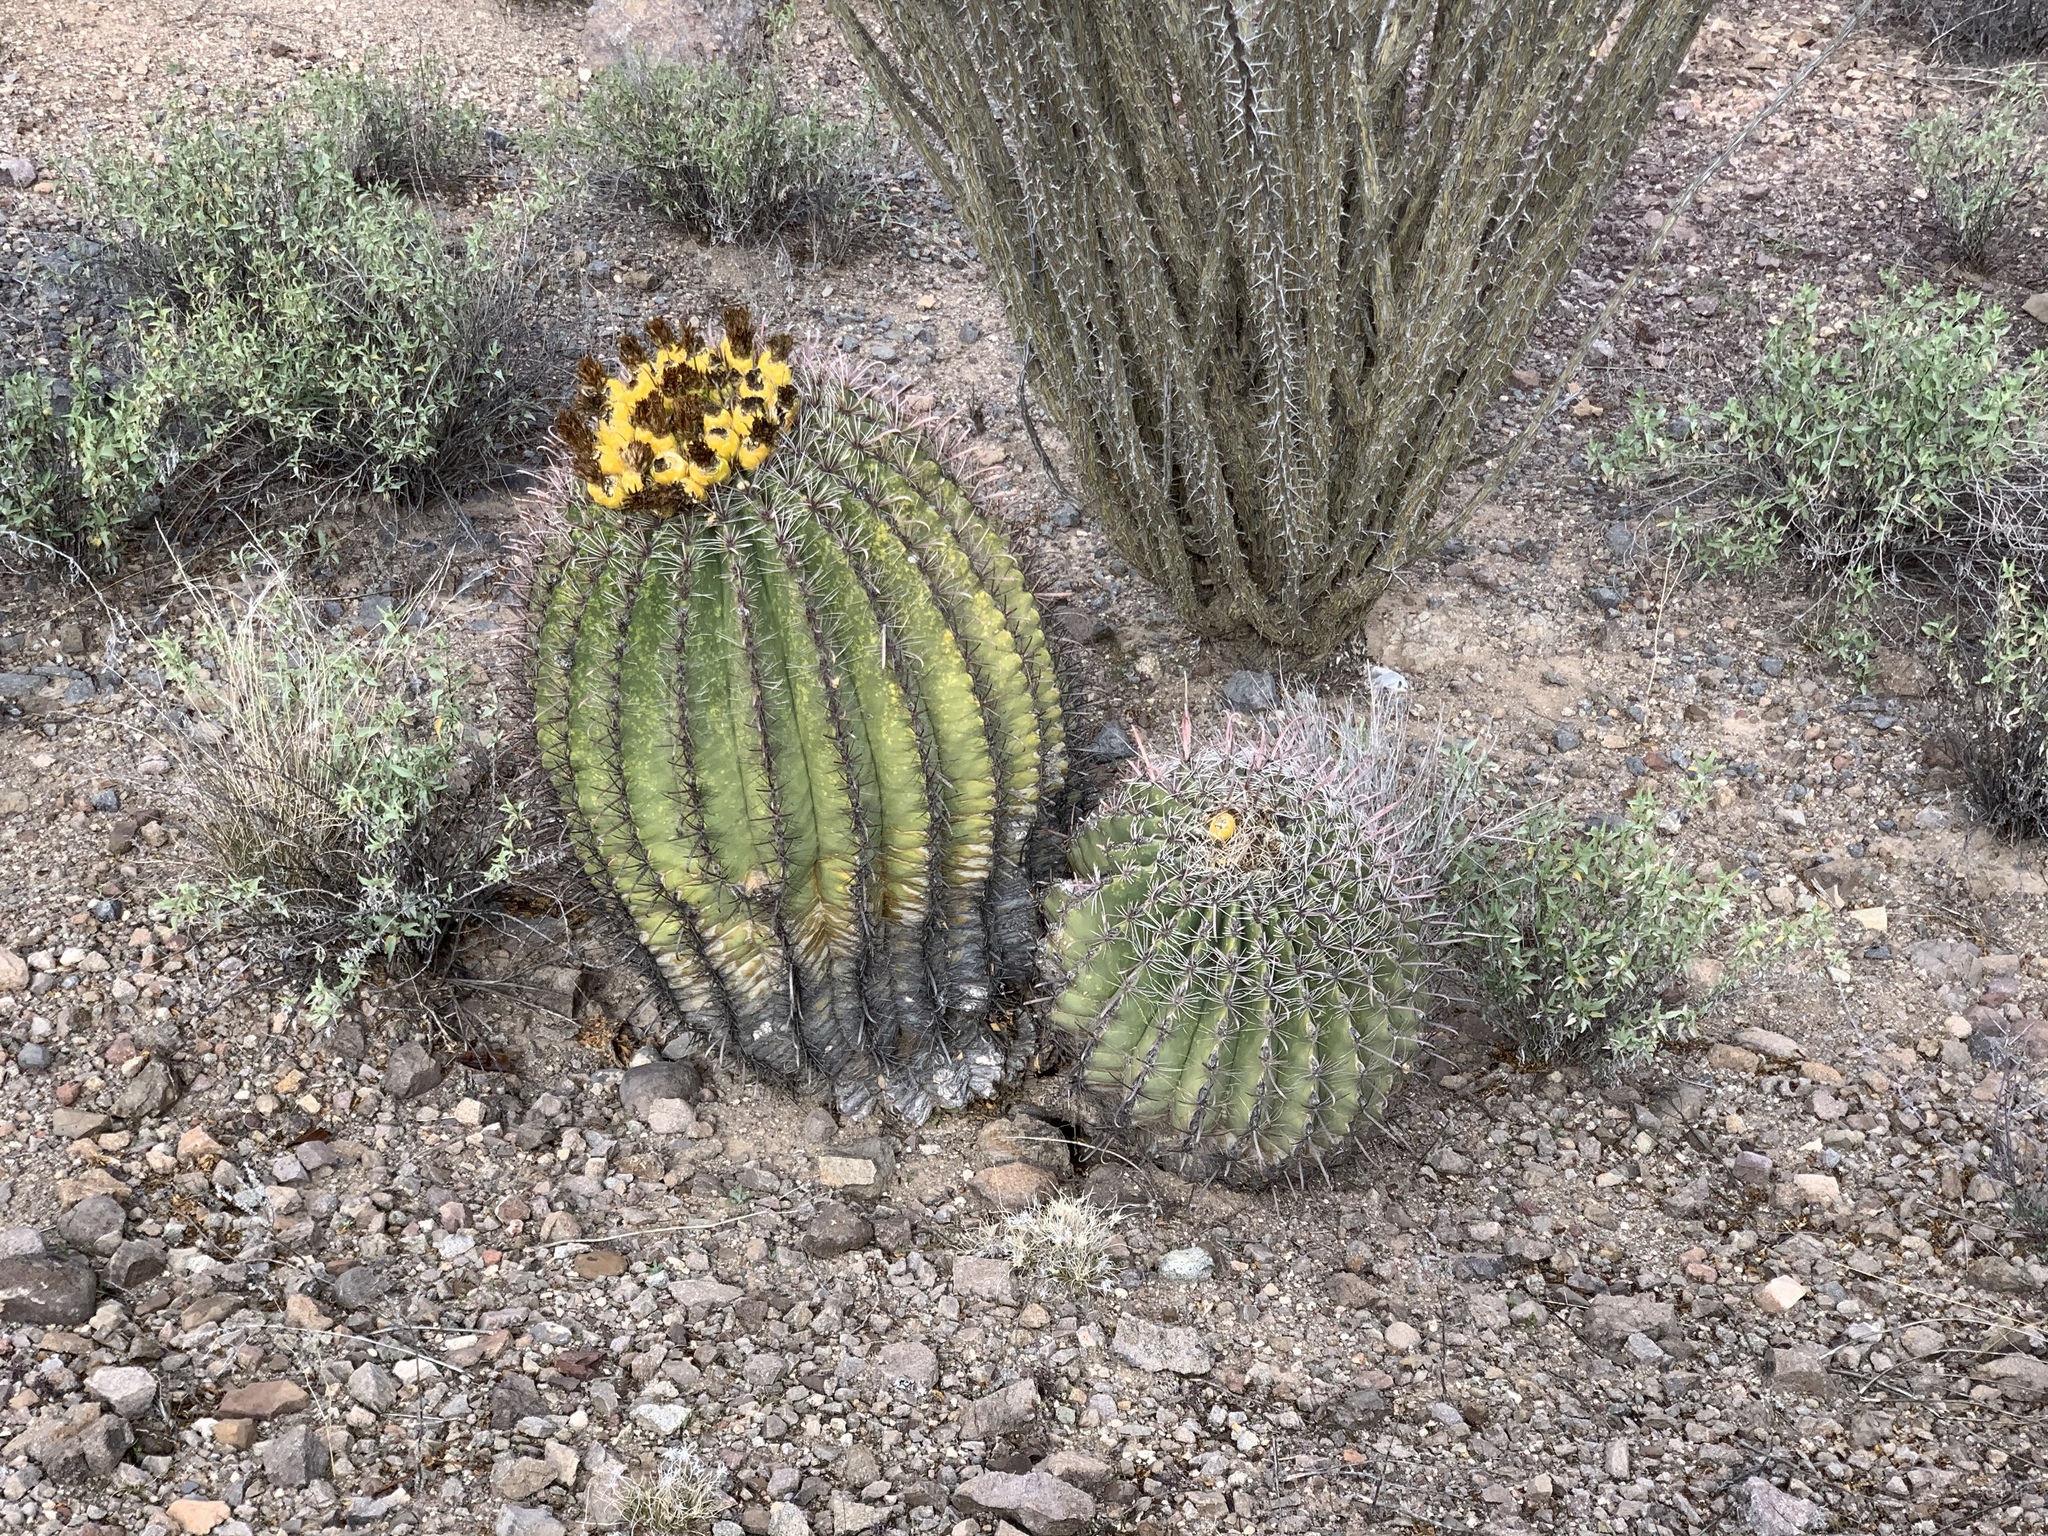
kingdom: Plantae
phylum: Tracheophyta
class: Magnoliopsida
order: Caryophyllales
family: Cactaceae
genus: Ferocactus
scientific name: Ferocactus wislizeni
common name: Candy barrel cactus
